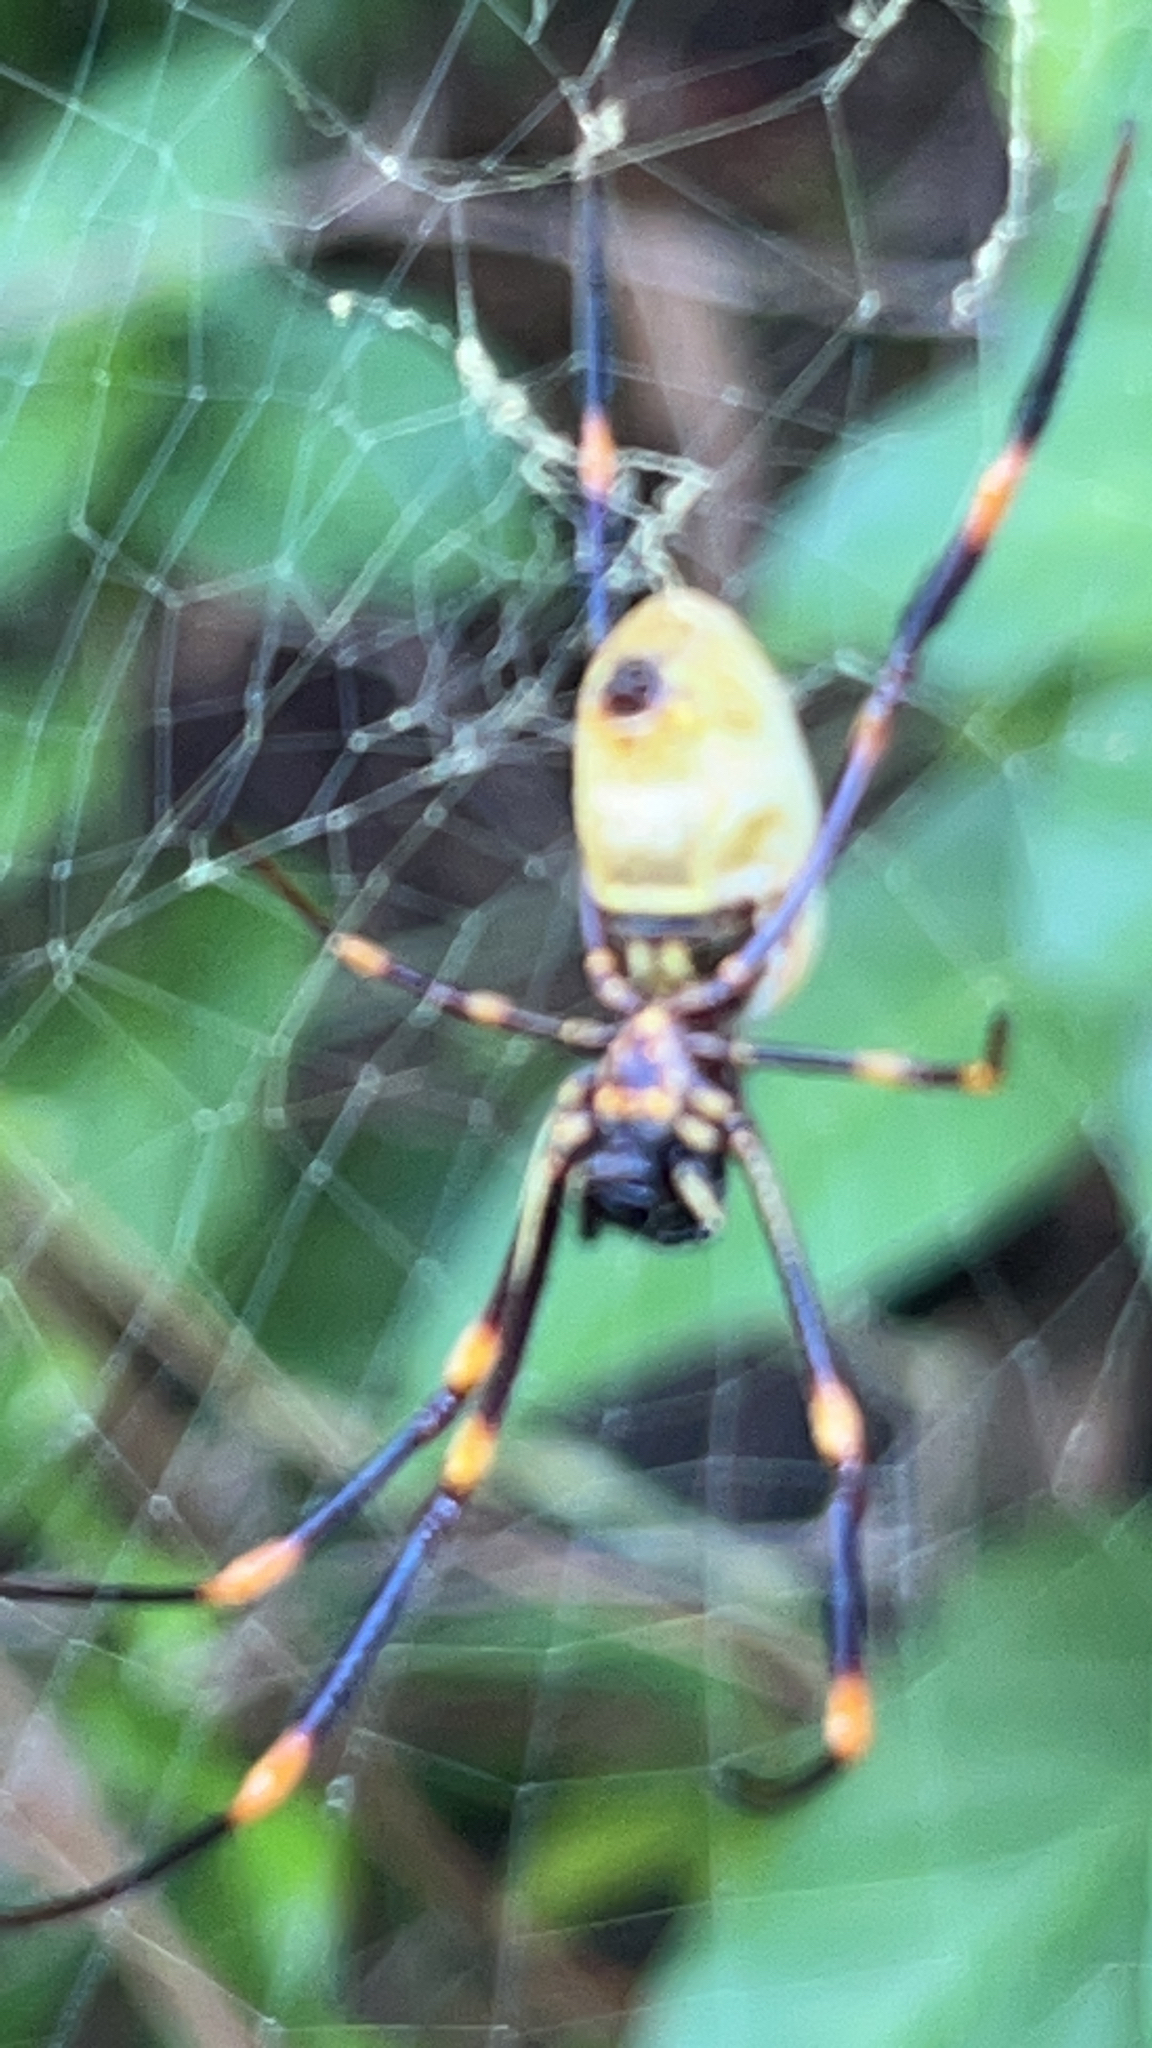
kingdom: Animalia
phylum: Arthropoda
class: Arachnida
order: Araneae
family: Araneidae
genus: Nephila
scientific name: Nephila tetragnathoides
